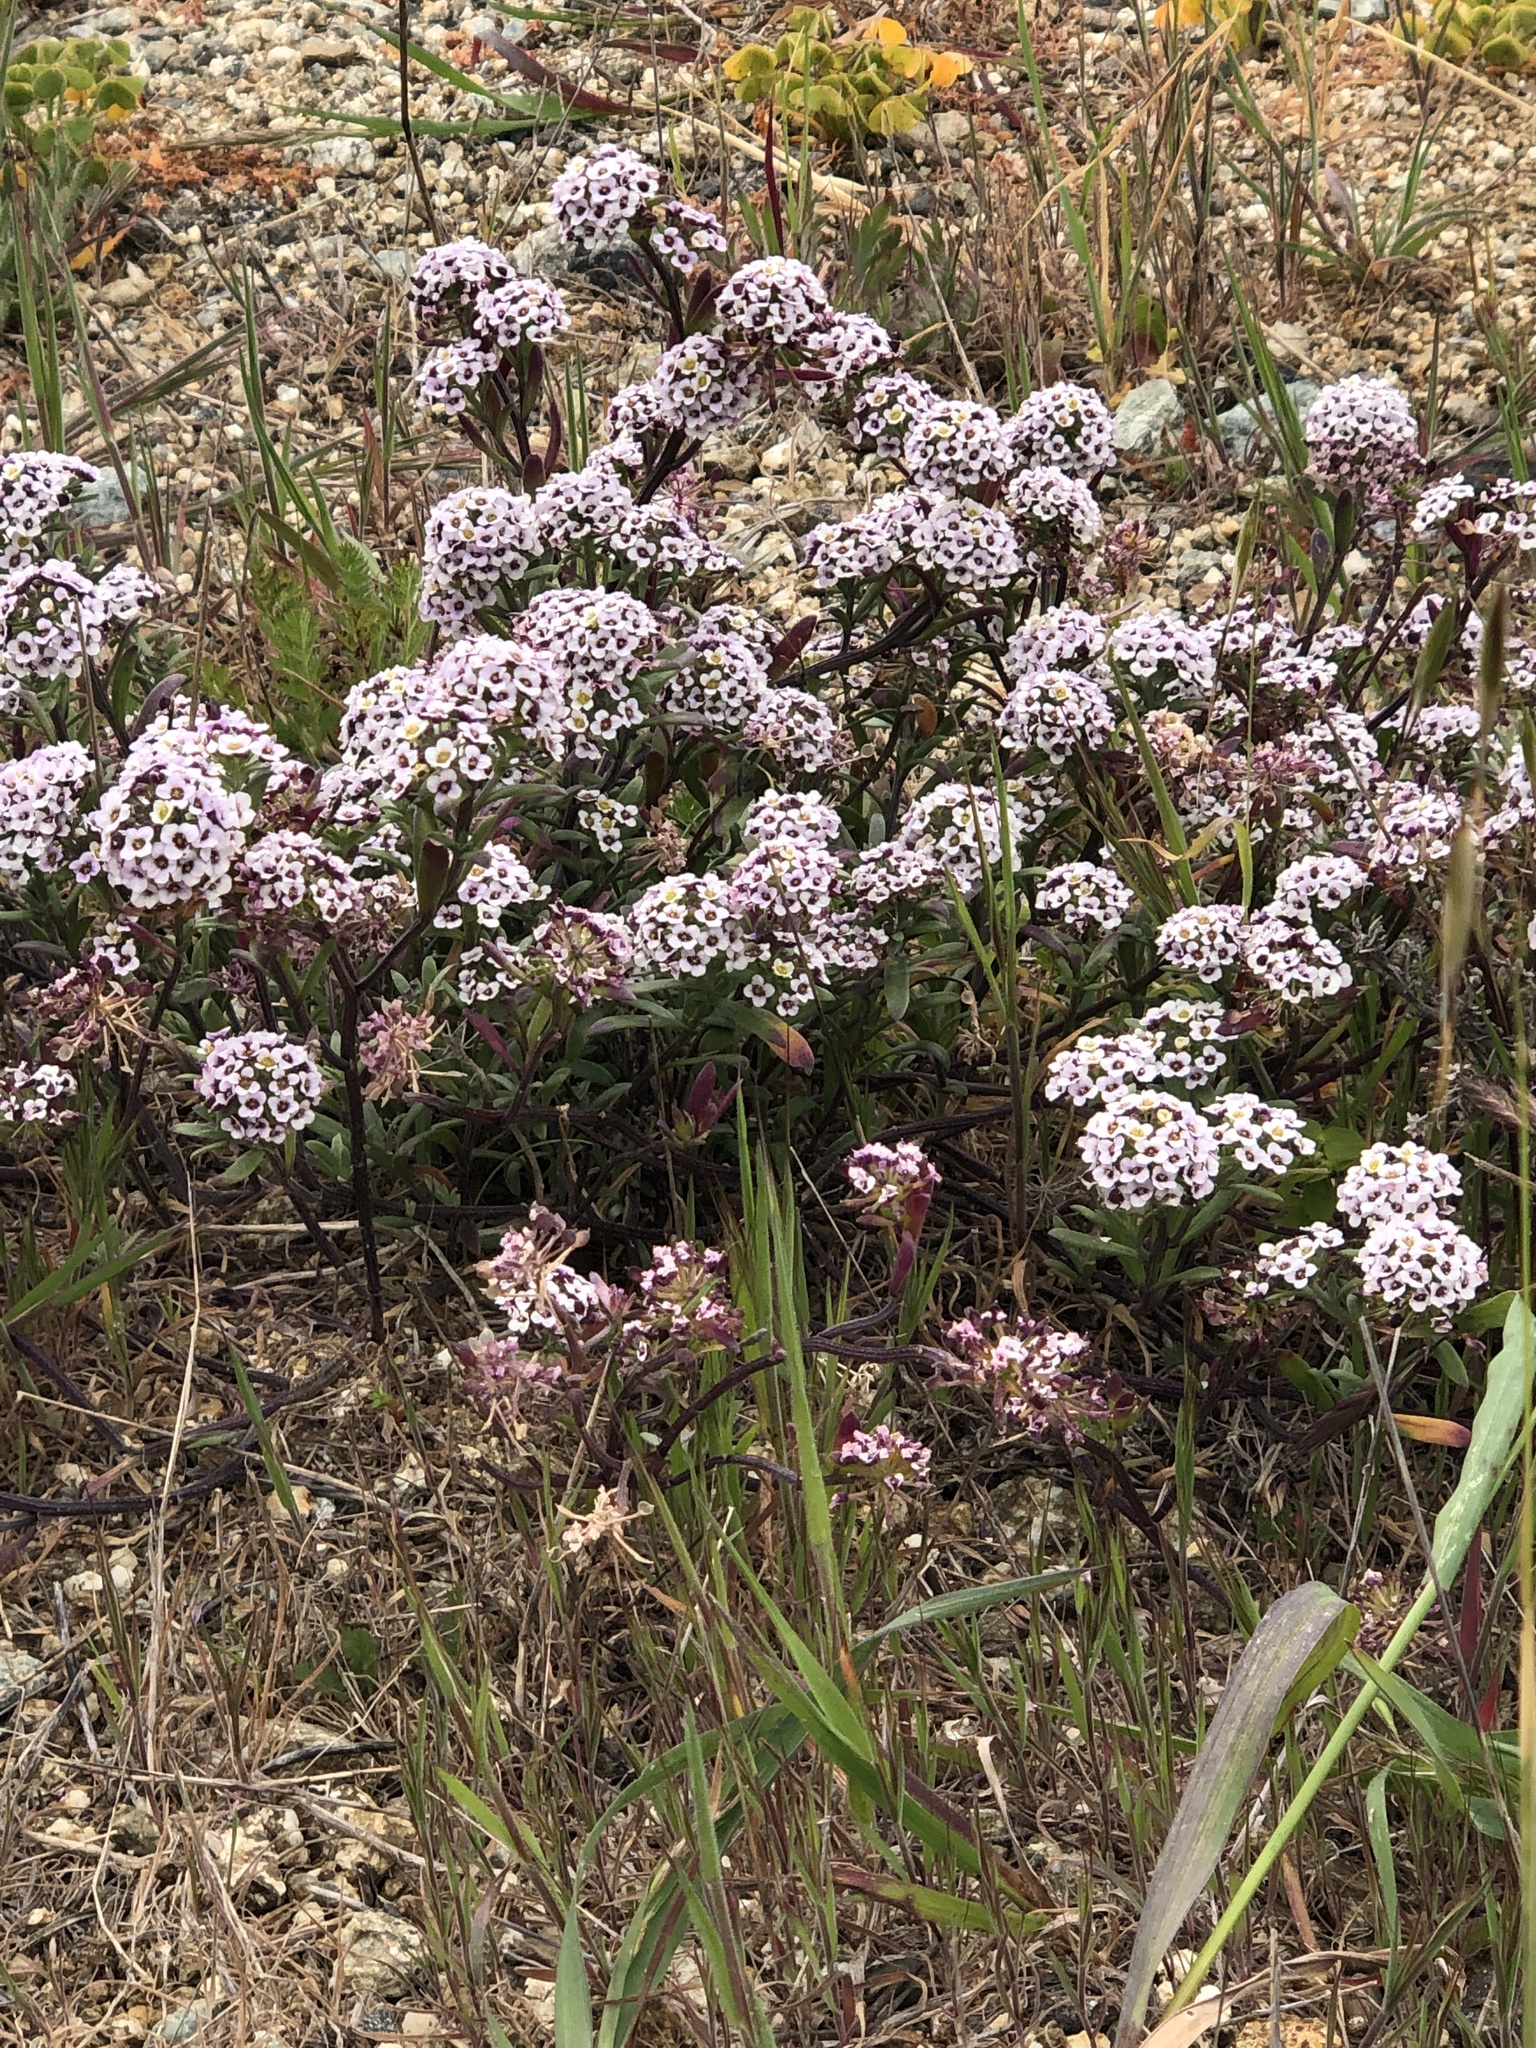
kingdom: Plantae
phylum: Tracheophyta
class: Magnoliopsida
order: Brassicales
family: Brassicaceae
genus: Lobularia
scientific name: Lobularia maritima
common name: Sweet alison
